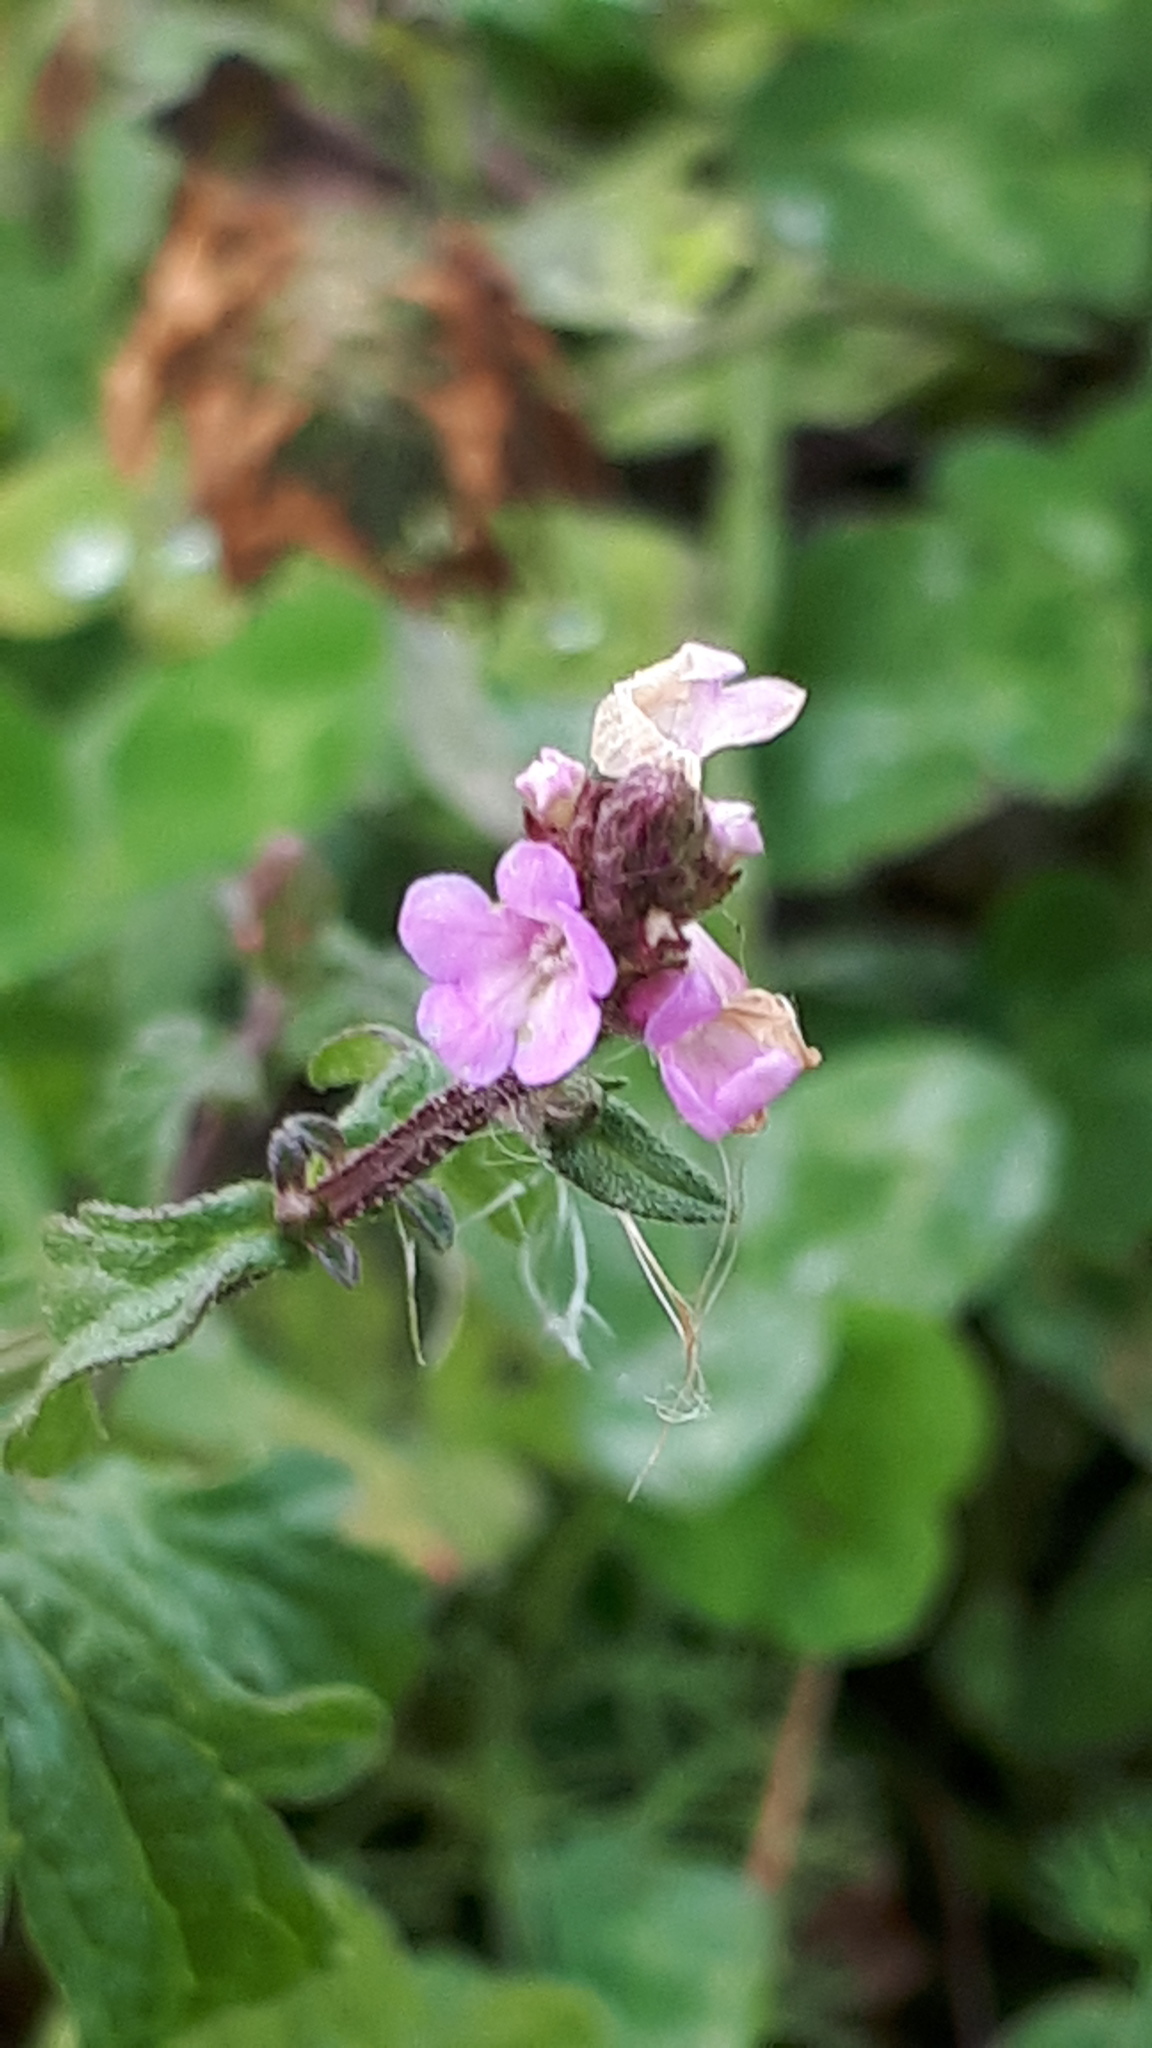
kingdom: Plantae
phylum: Tracheophyta
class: Magnoliopsida
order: Lamiales
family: Verbenaceae
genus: Verbena
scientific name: Verbena officinalis
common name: Vervain
